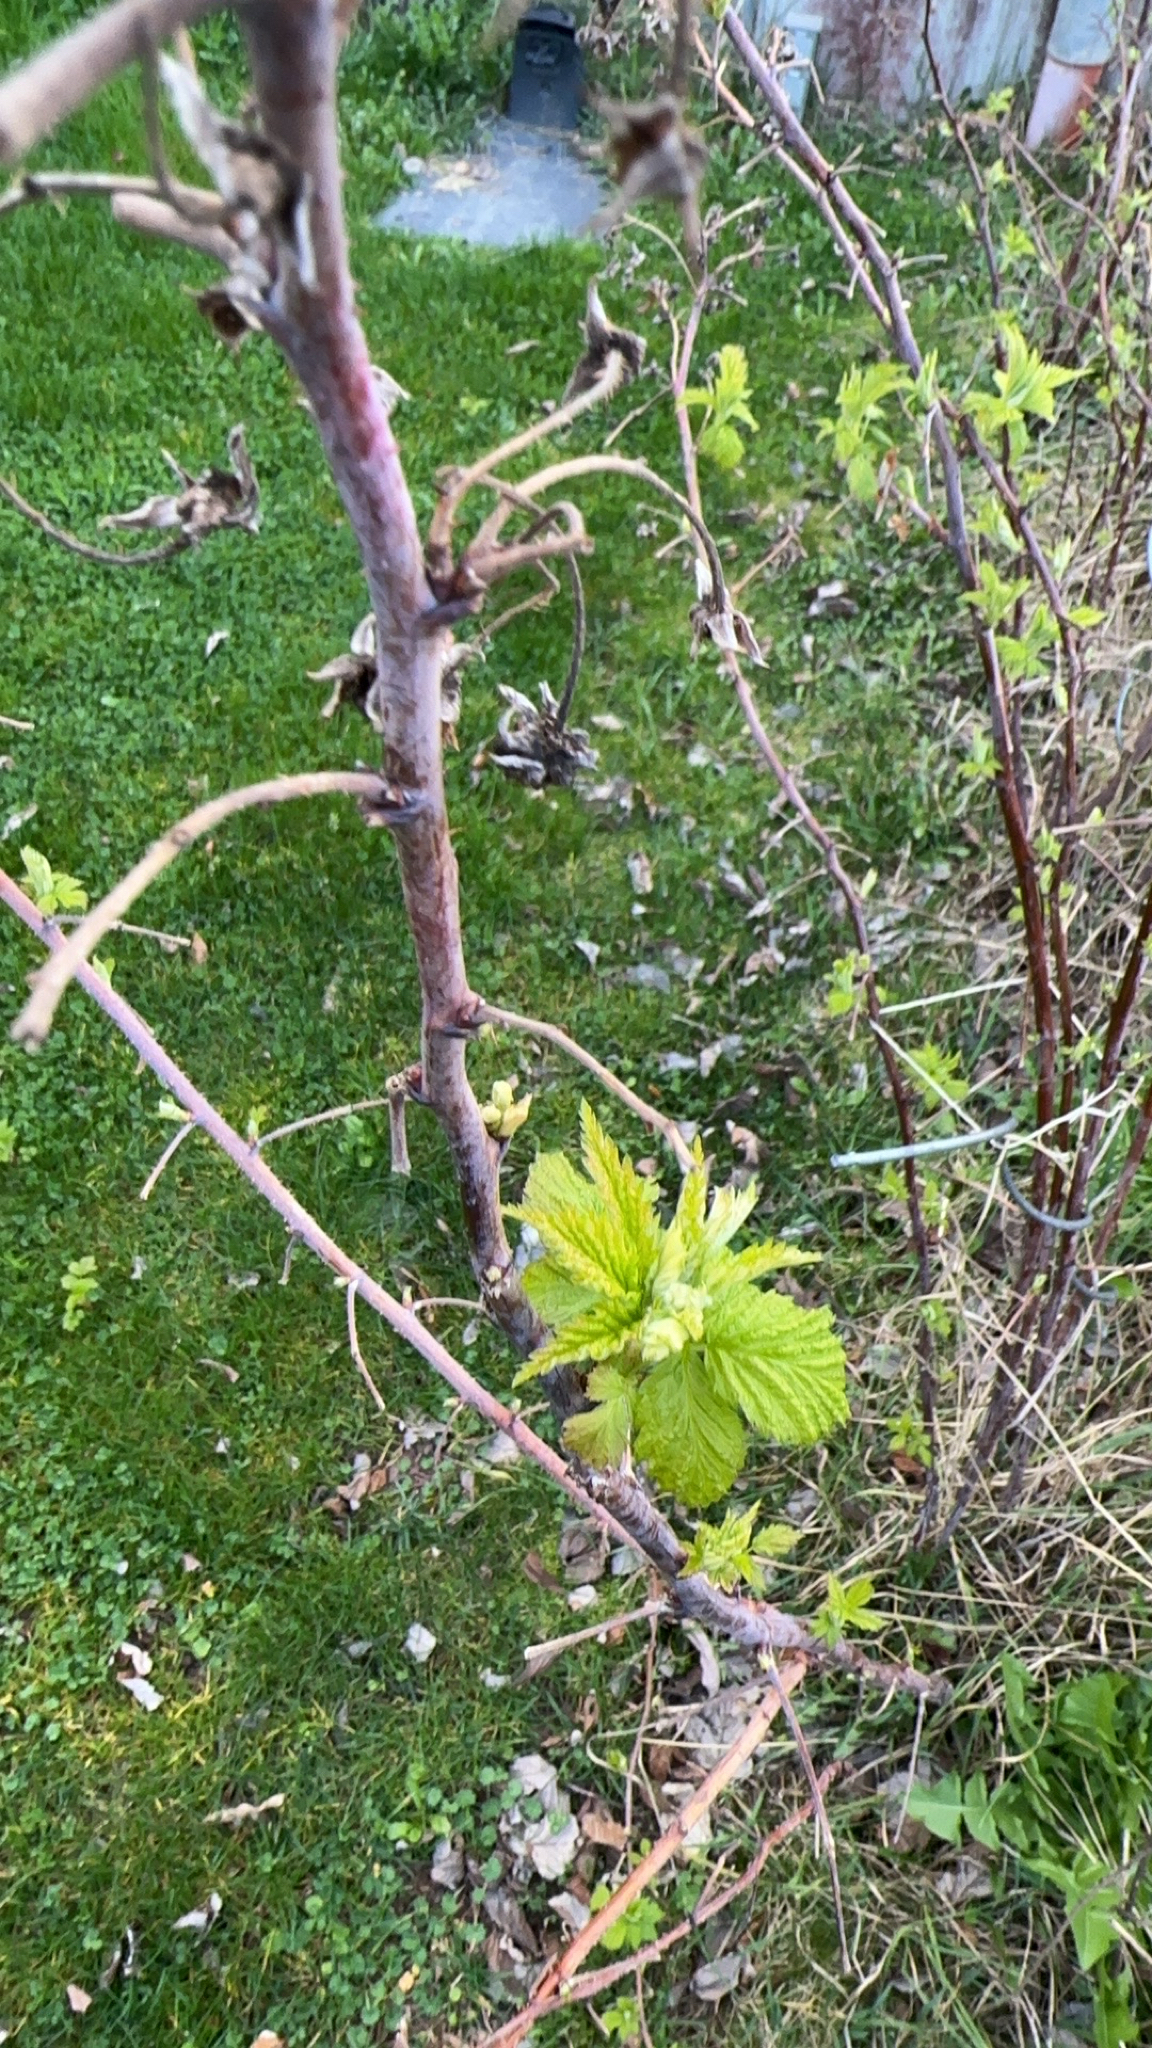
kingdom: Plantae
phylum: Tracheophyta
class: Magnoliopsida
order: Rosales
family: Rosaceae
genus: Rubus
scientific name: Rubus idaeus
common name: Raspberry
